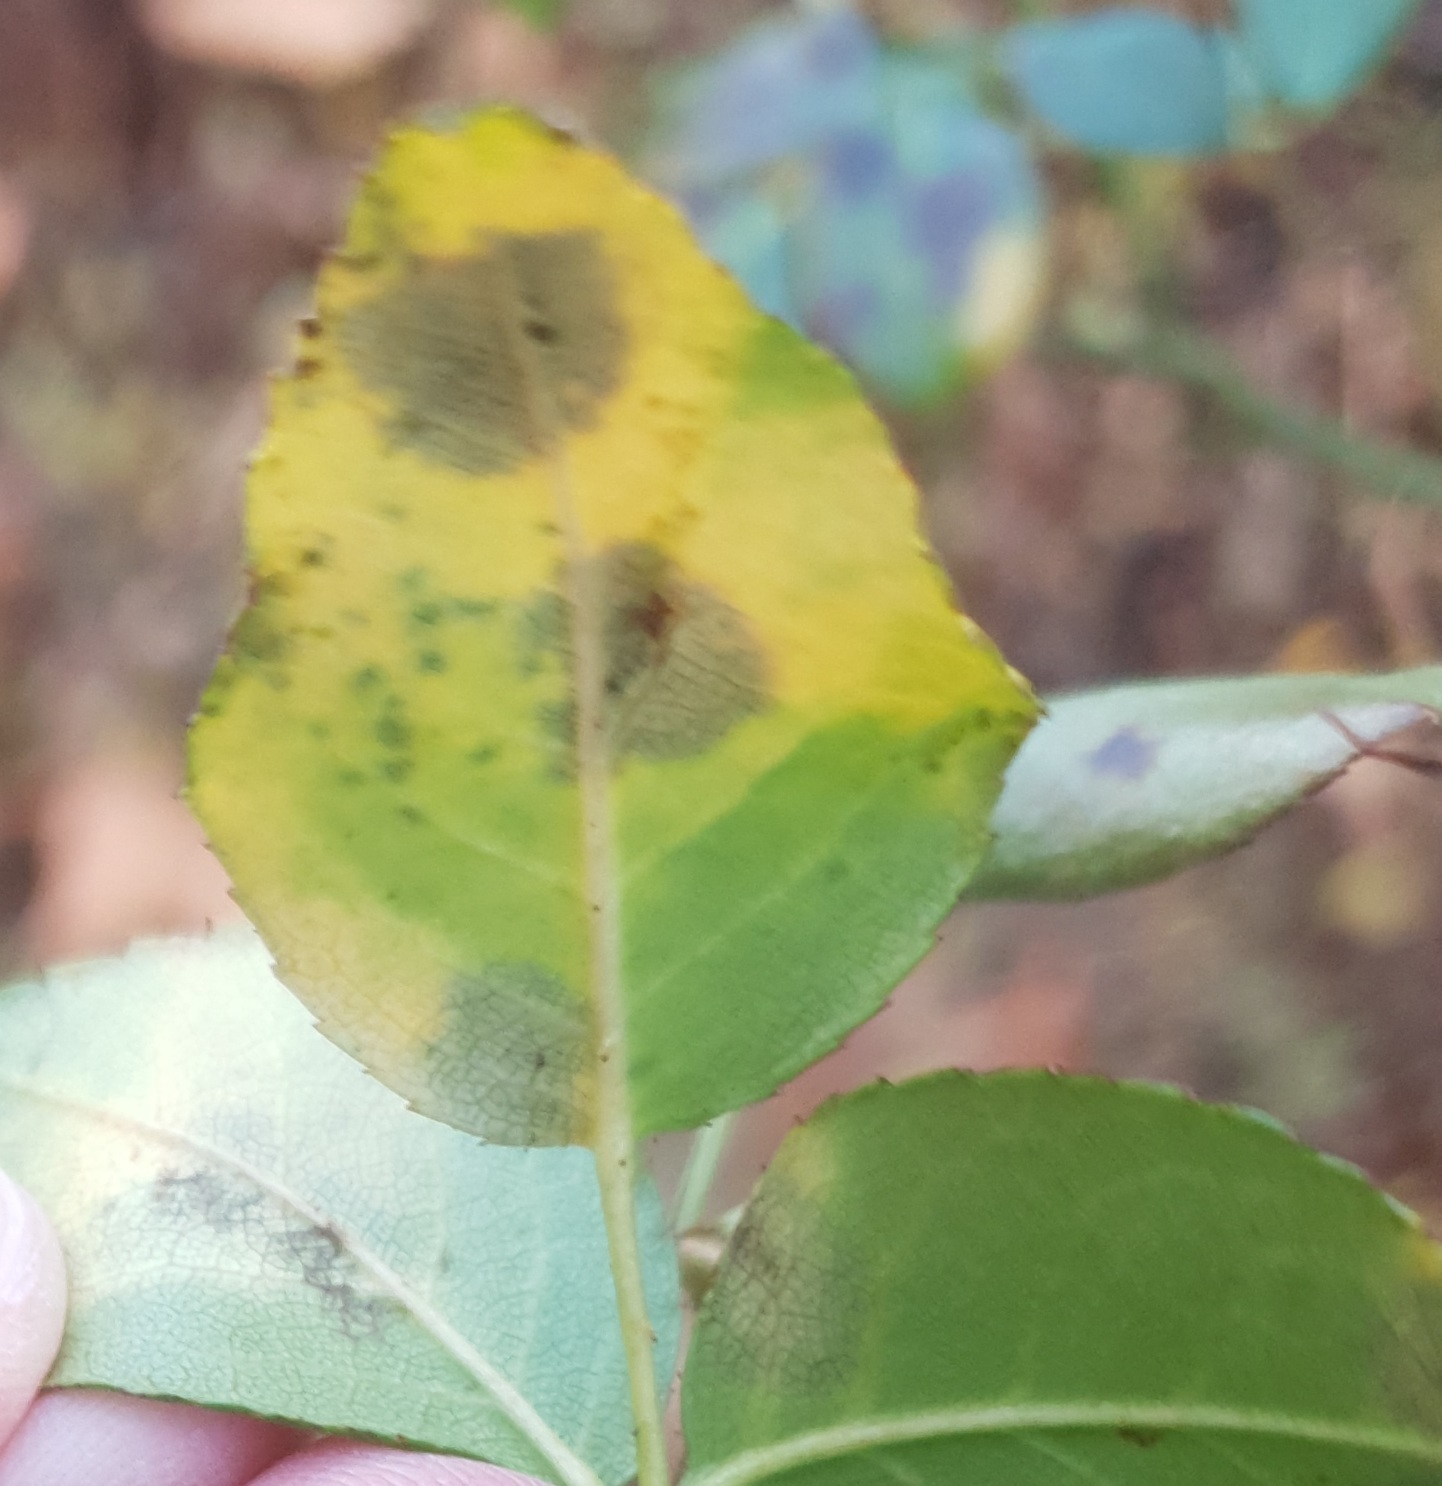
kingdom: Fungi
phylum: Ascomycota
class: Leotiomycetes
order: Helotiales
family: Drepanopezizaceae
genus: Diplocarpon
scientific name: Diplocarpon rosae
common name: Rose black-spot
